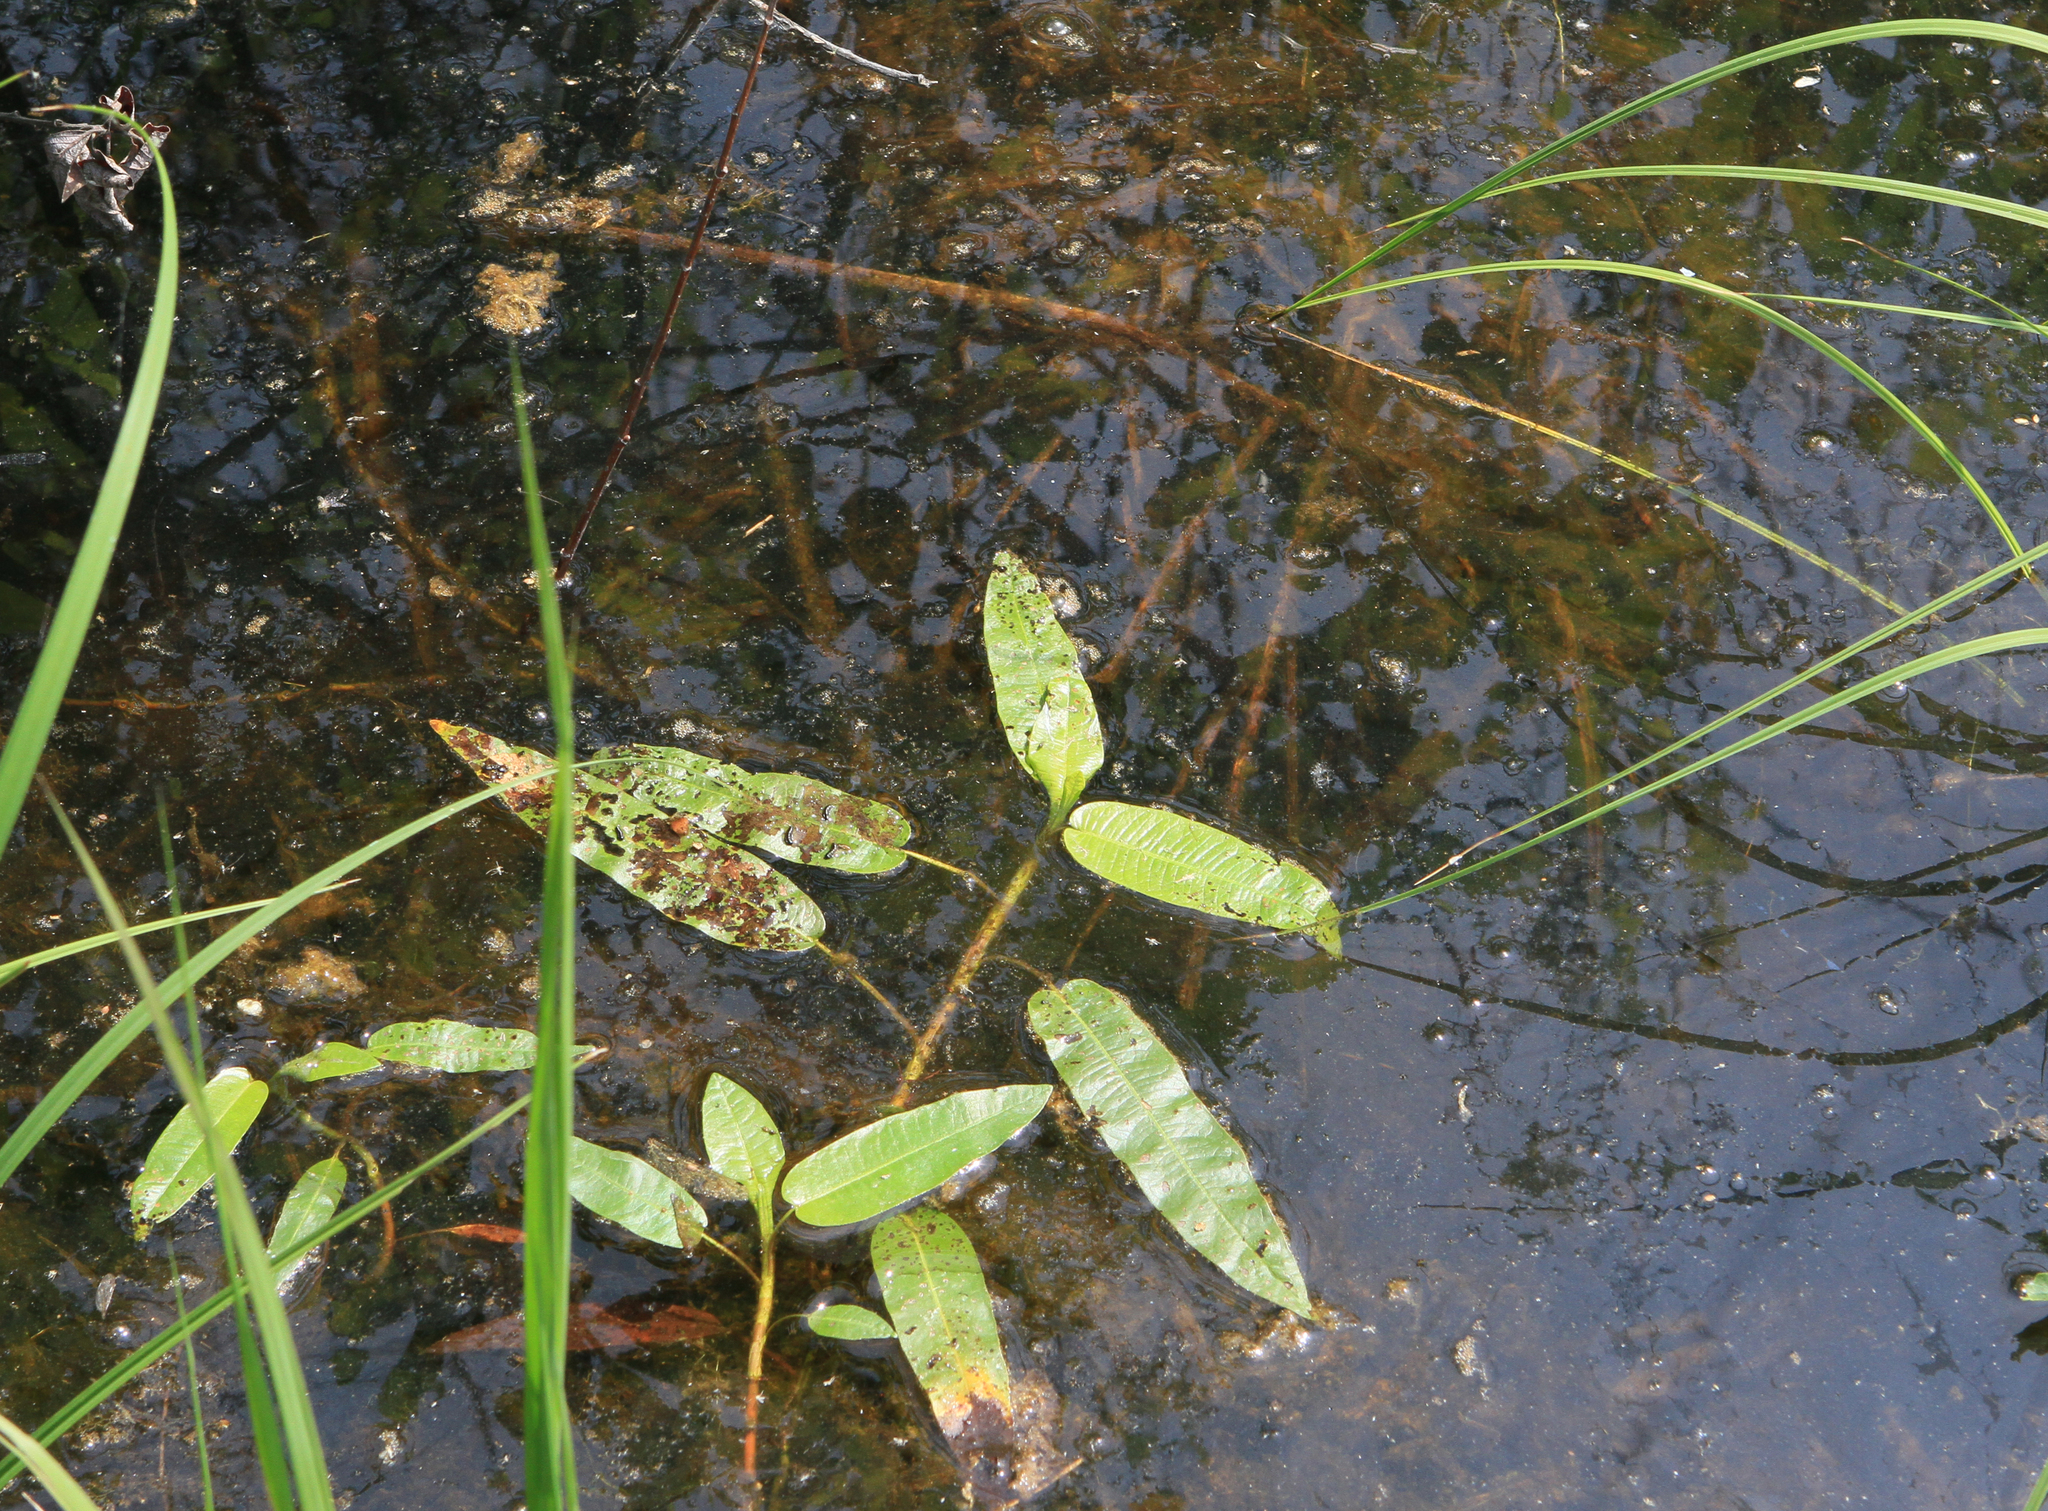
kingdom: Plantae
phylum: Tracheophyta
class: Magnoliopsida
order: Caryophyllales
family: Polygonaceae
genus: Persicaria
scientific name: Persicaria amphibia
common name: Amphibious bistort
